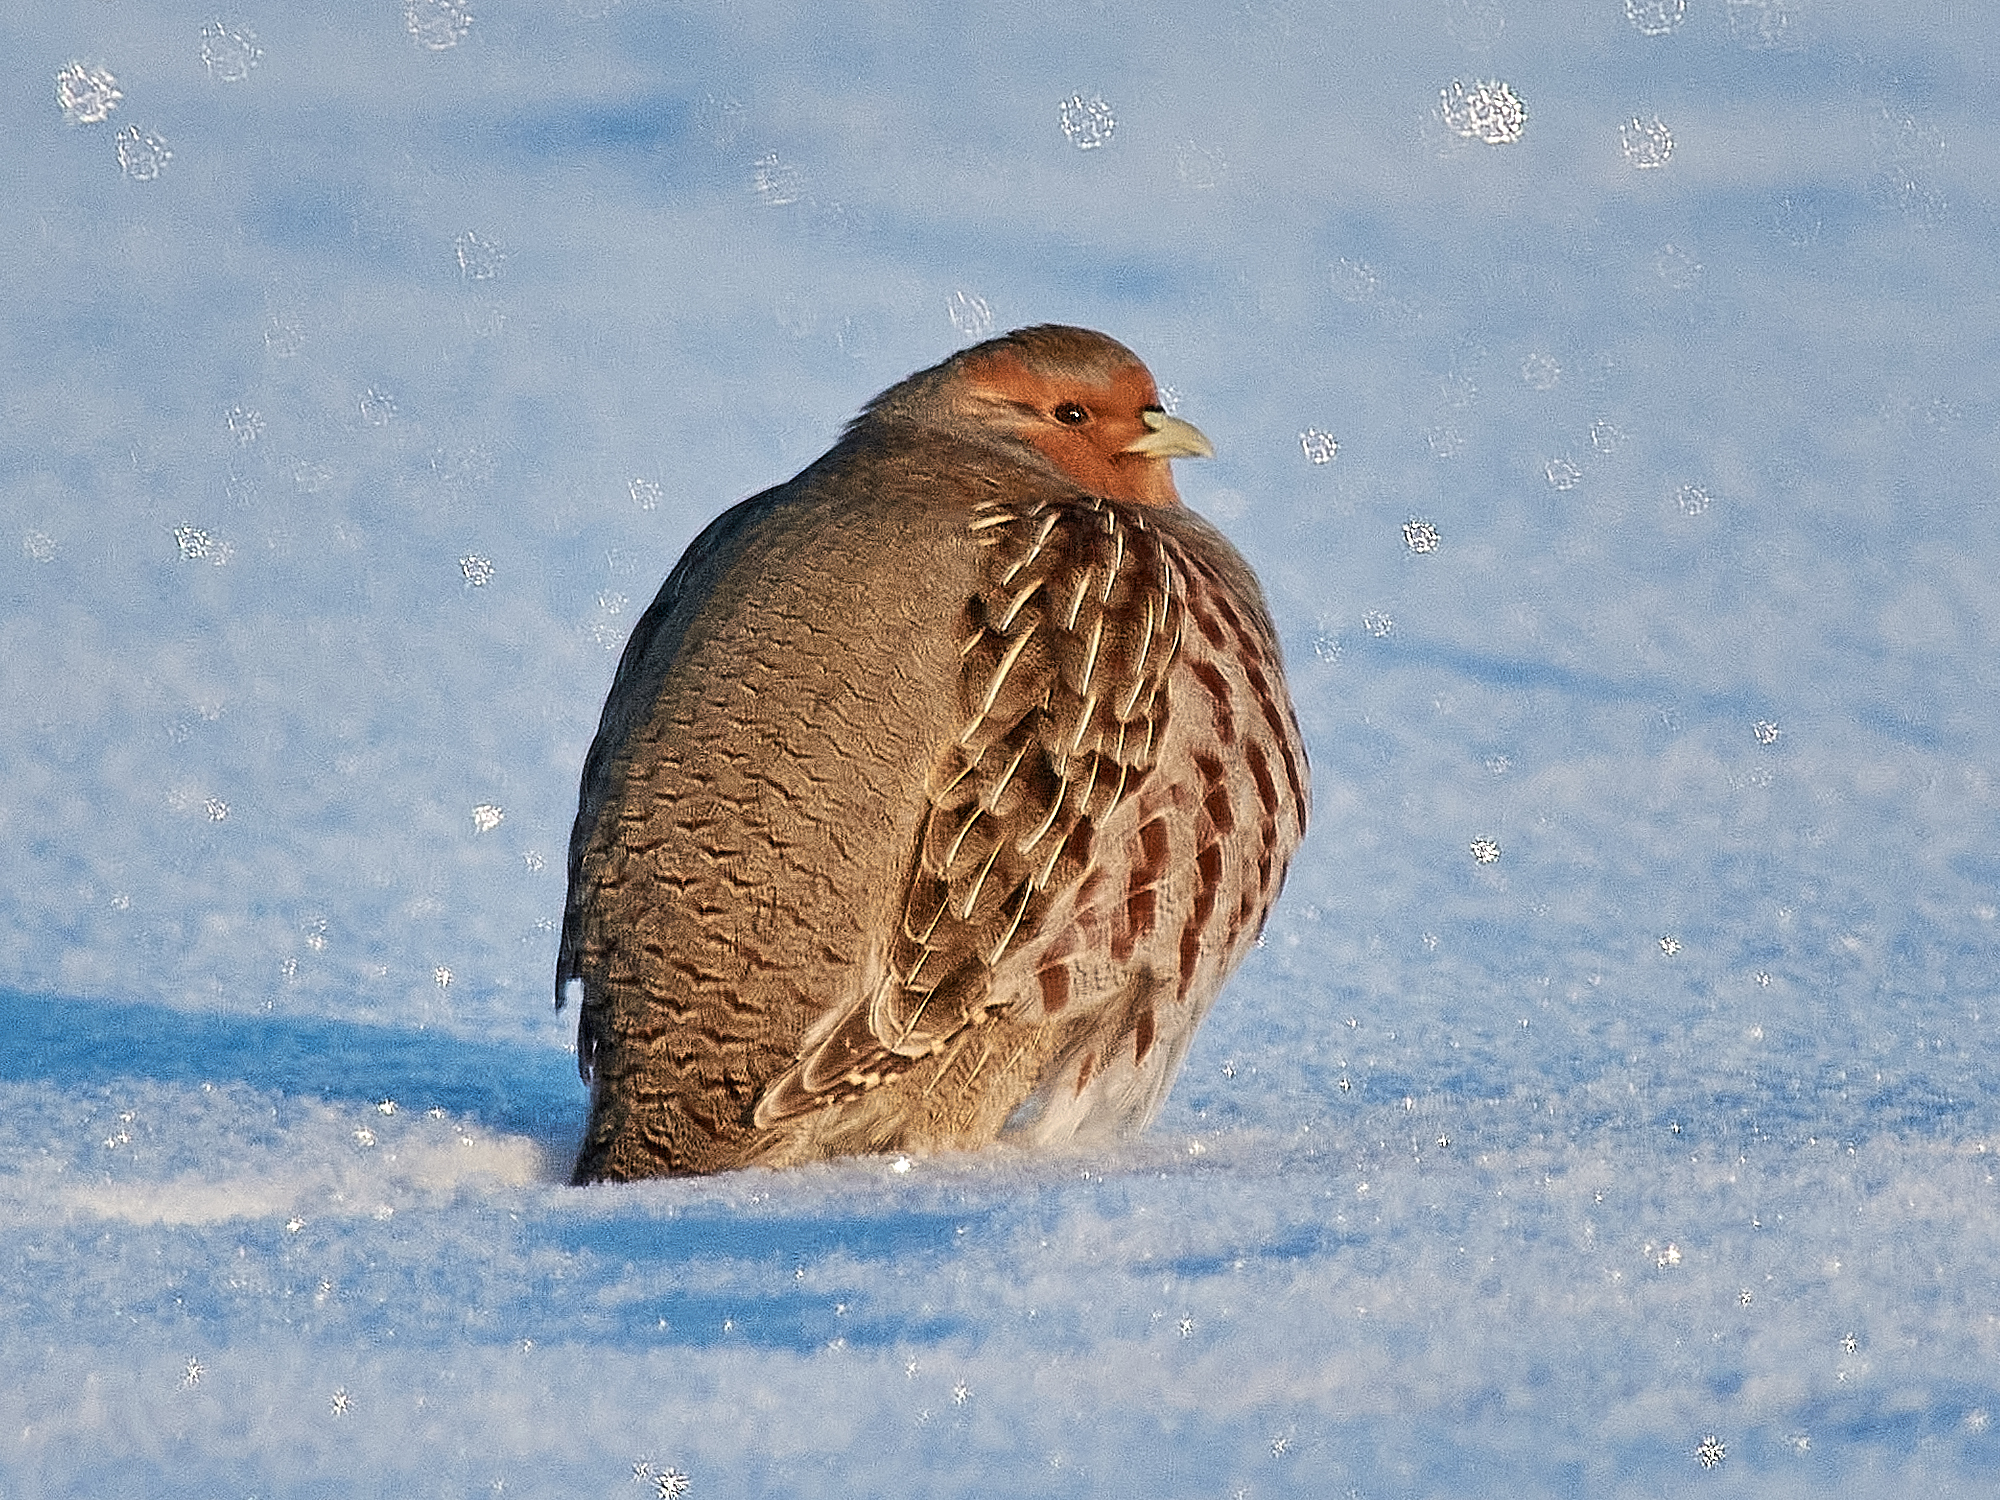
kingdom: Animalia
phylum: Chordata
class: Aves
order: Galliformes
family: Phasianidae
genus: Perdix
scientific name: Perdix perdix
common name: Grey partridge
